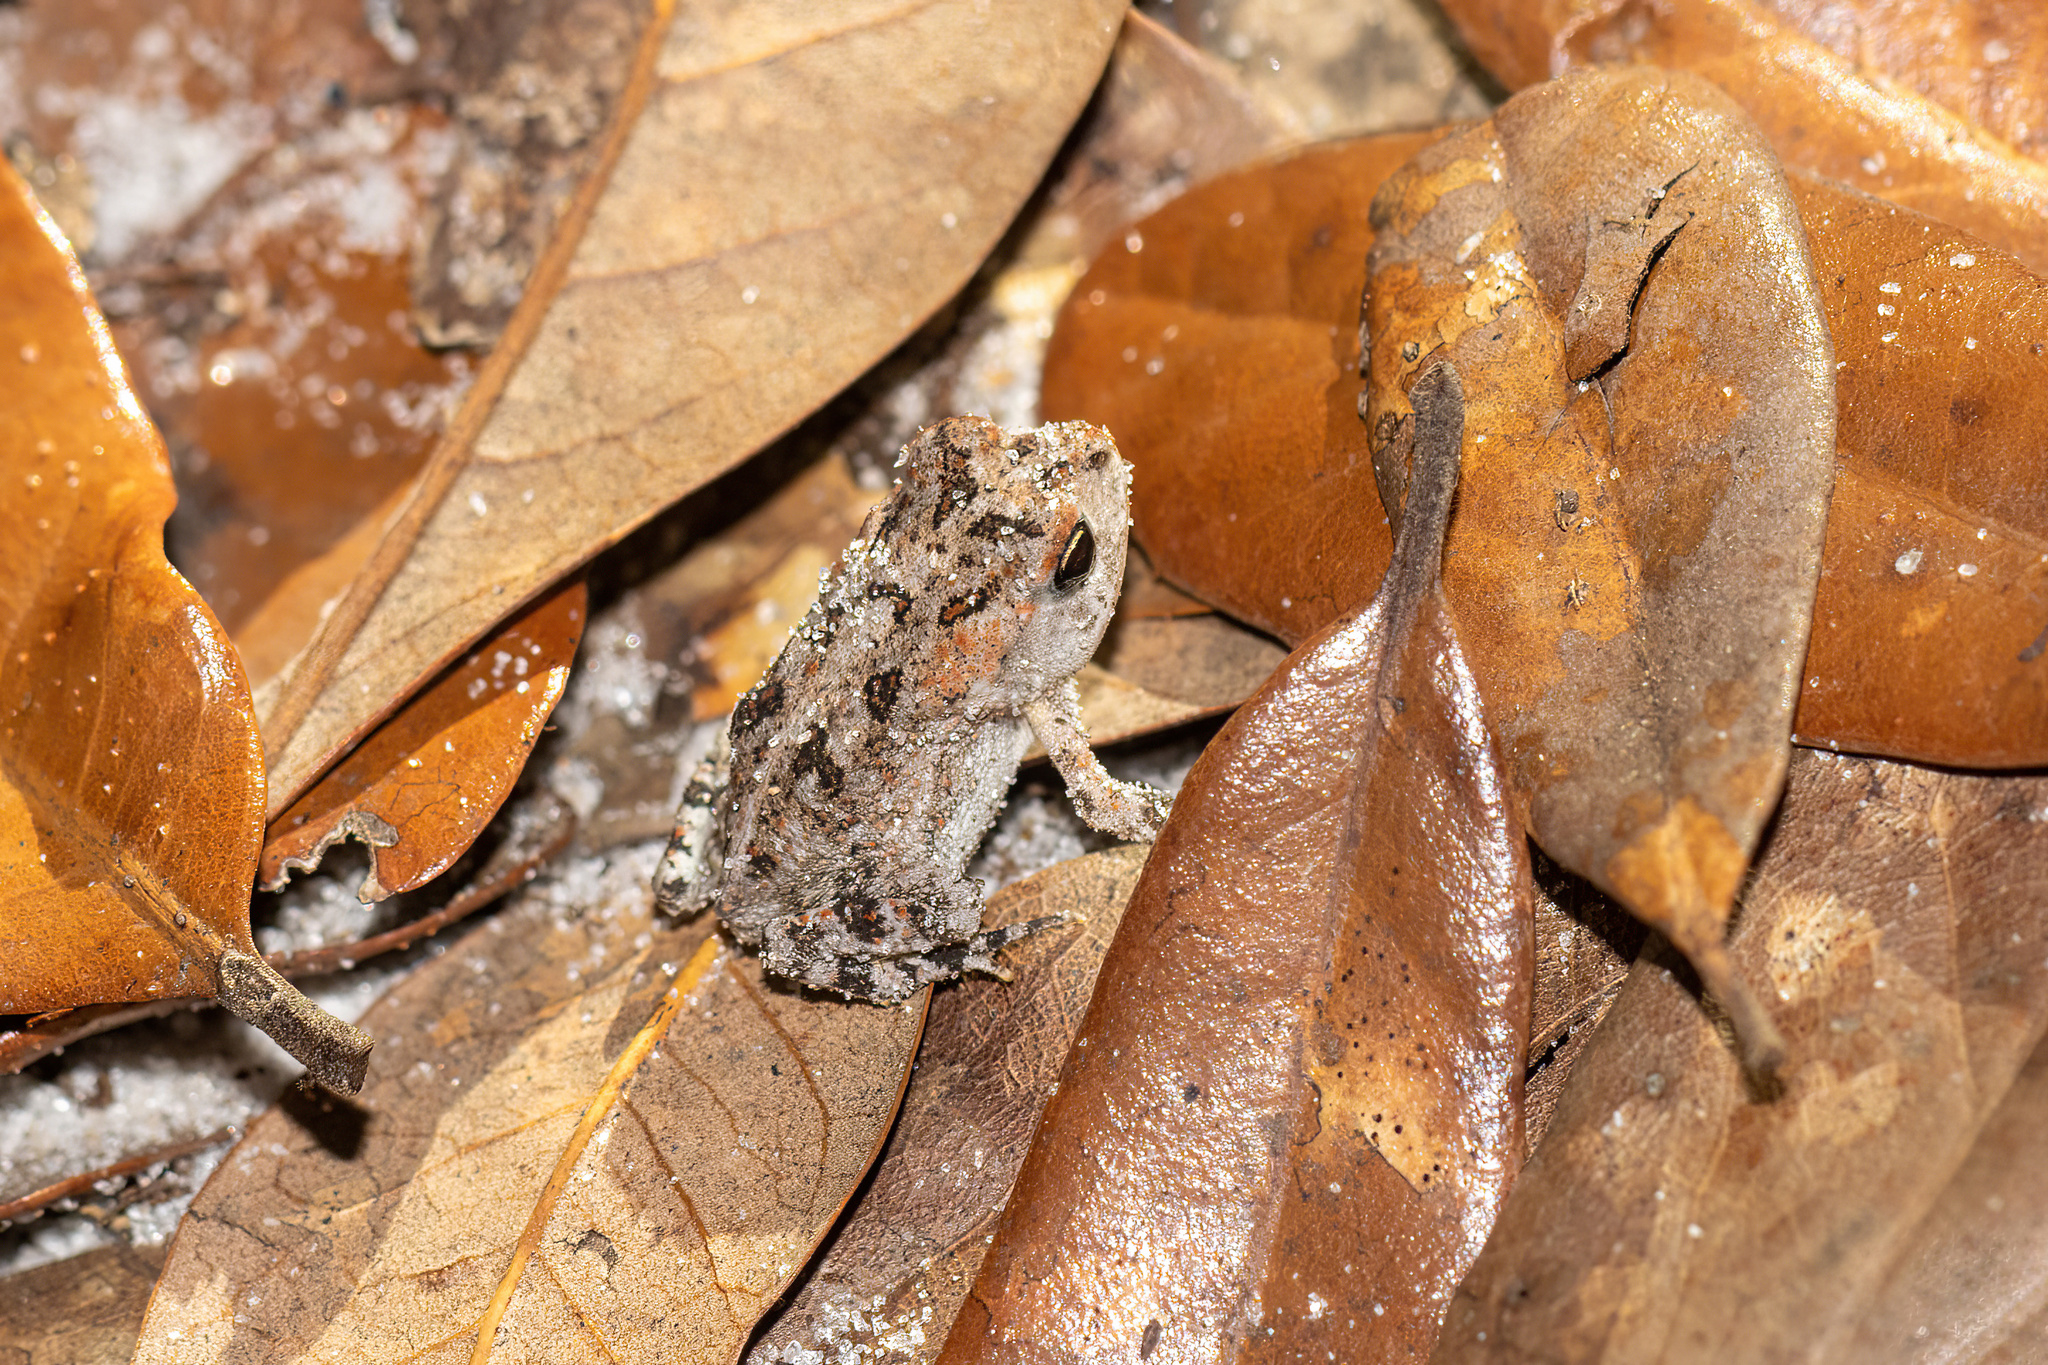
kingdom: Animalia
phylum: Chordata
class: Amphibia
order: Anura
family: Bufonidae
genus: Anaxyrus
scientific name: Anaxyrus terrestris
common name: Southern toad
